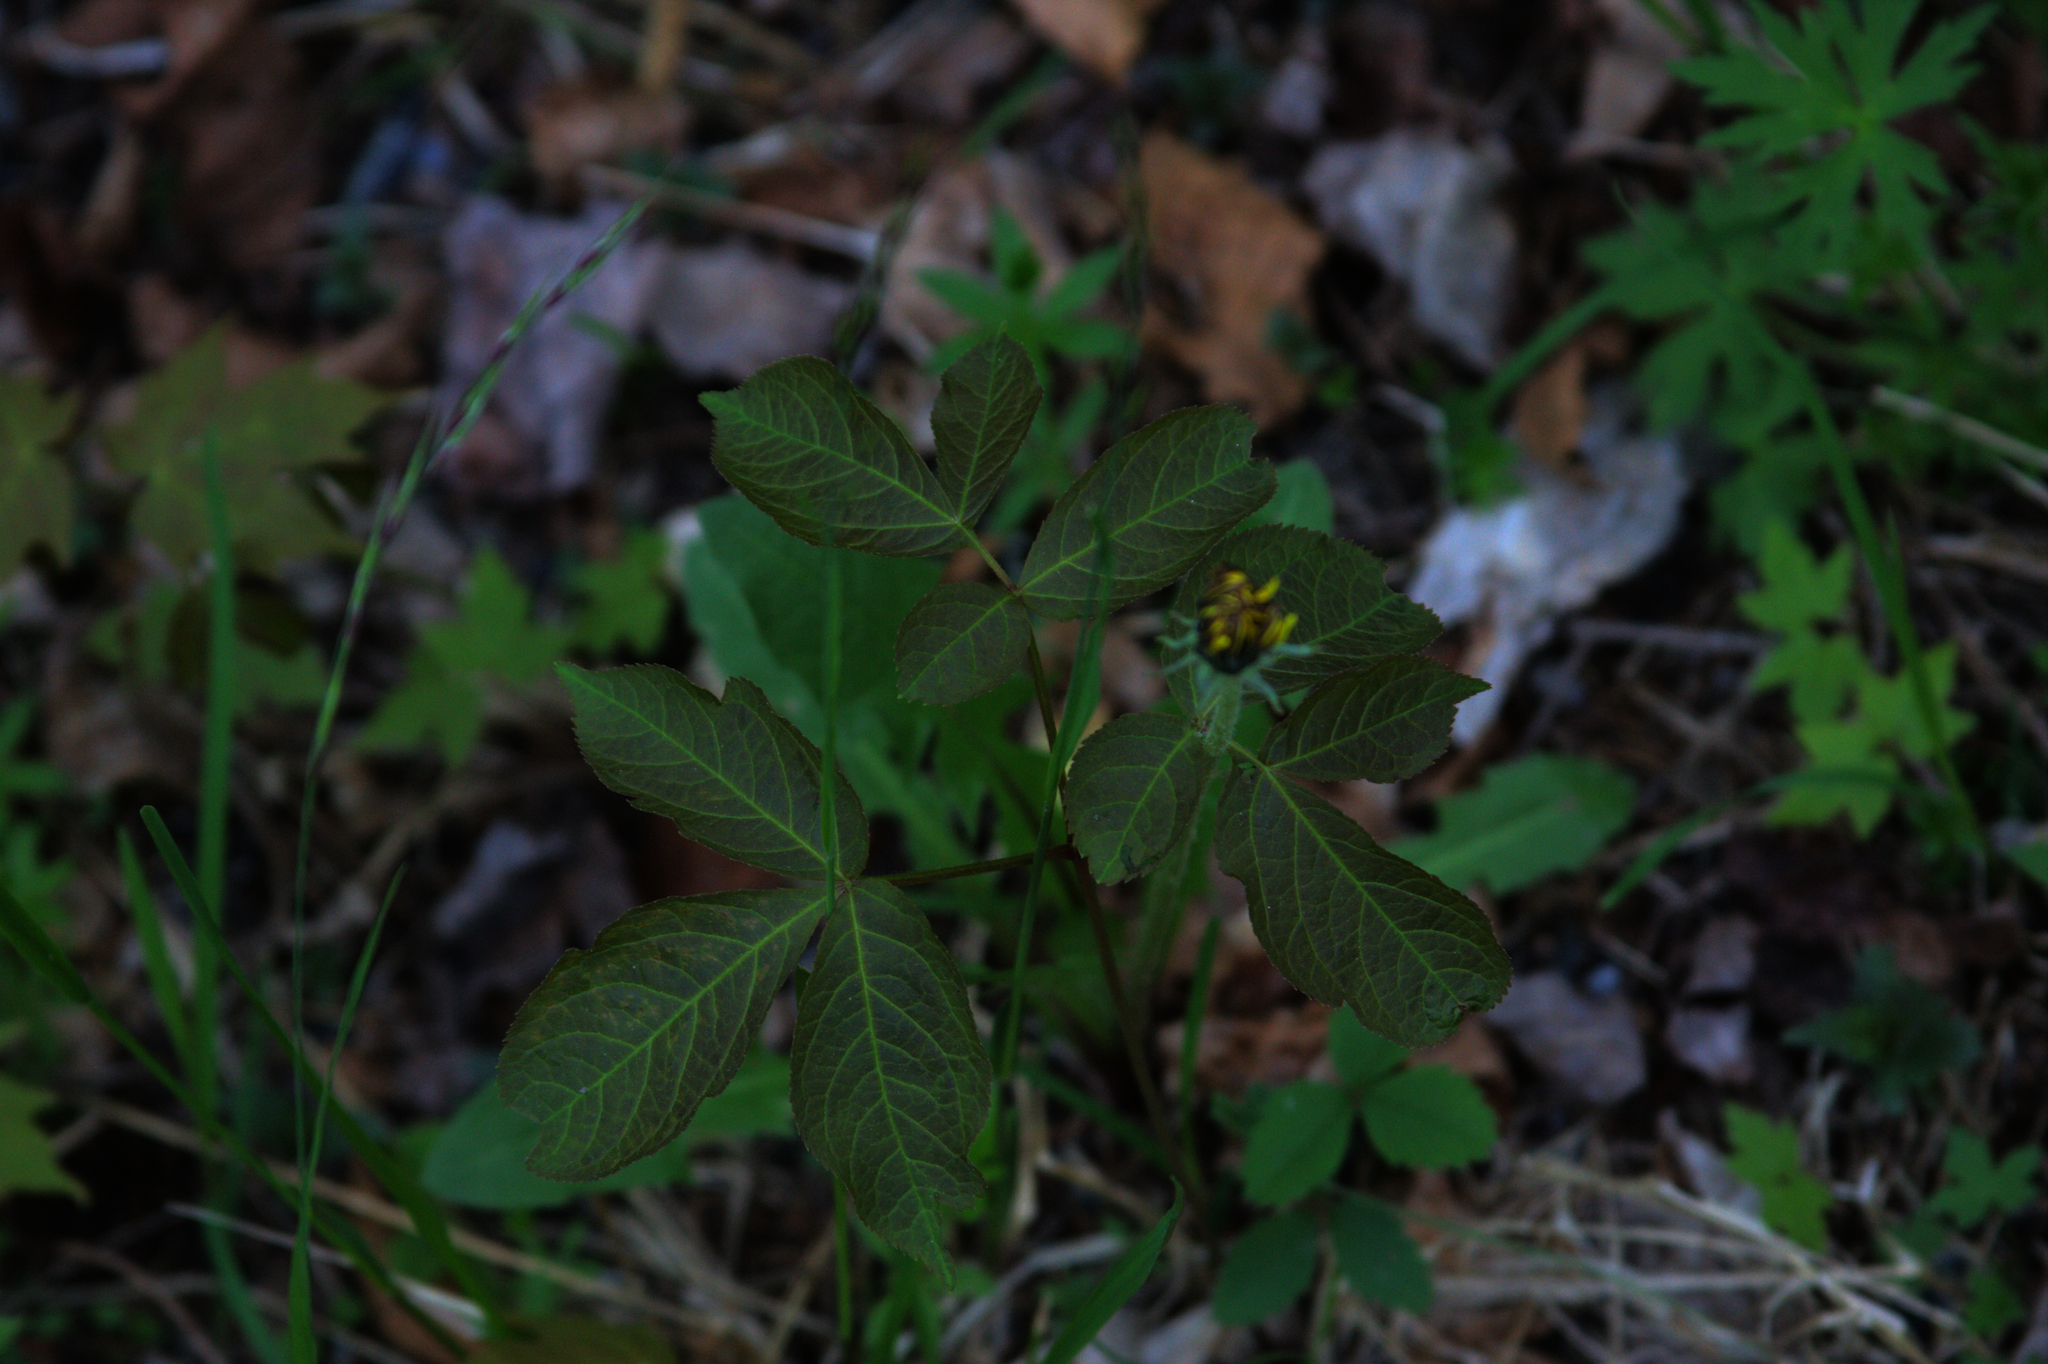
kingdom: Plantae
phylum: Tracheophyta
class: Magnoliopsida
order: Apiales
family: Araliaceae
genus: Aralia
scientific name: Aralia nudicaulis
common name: Wild sarsaparilla
